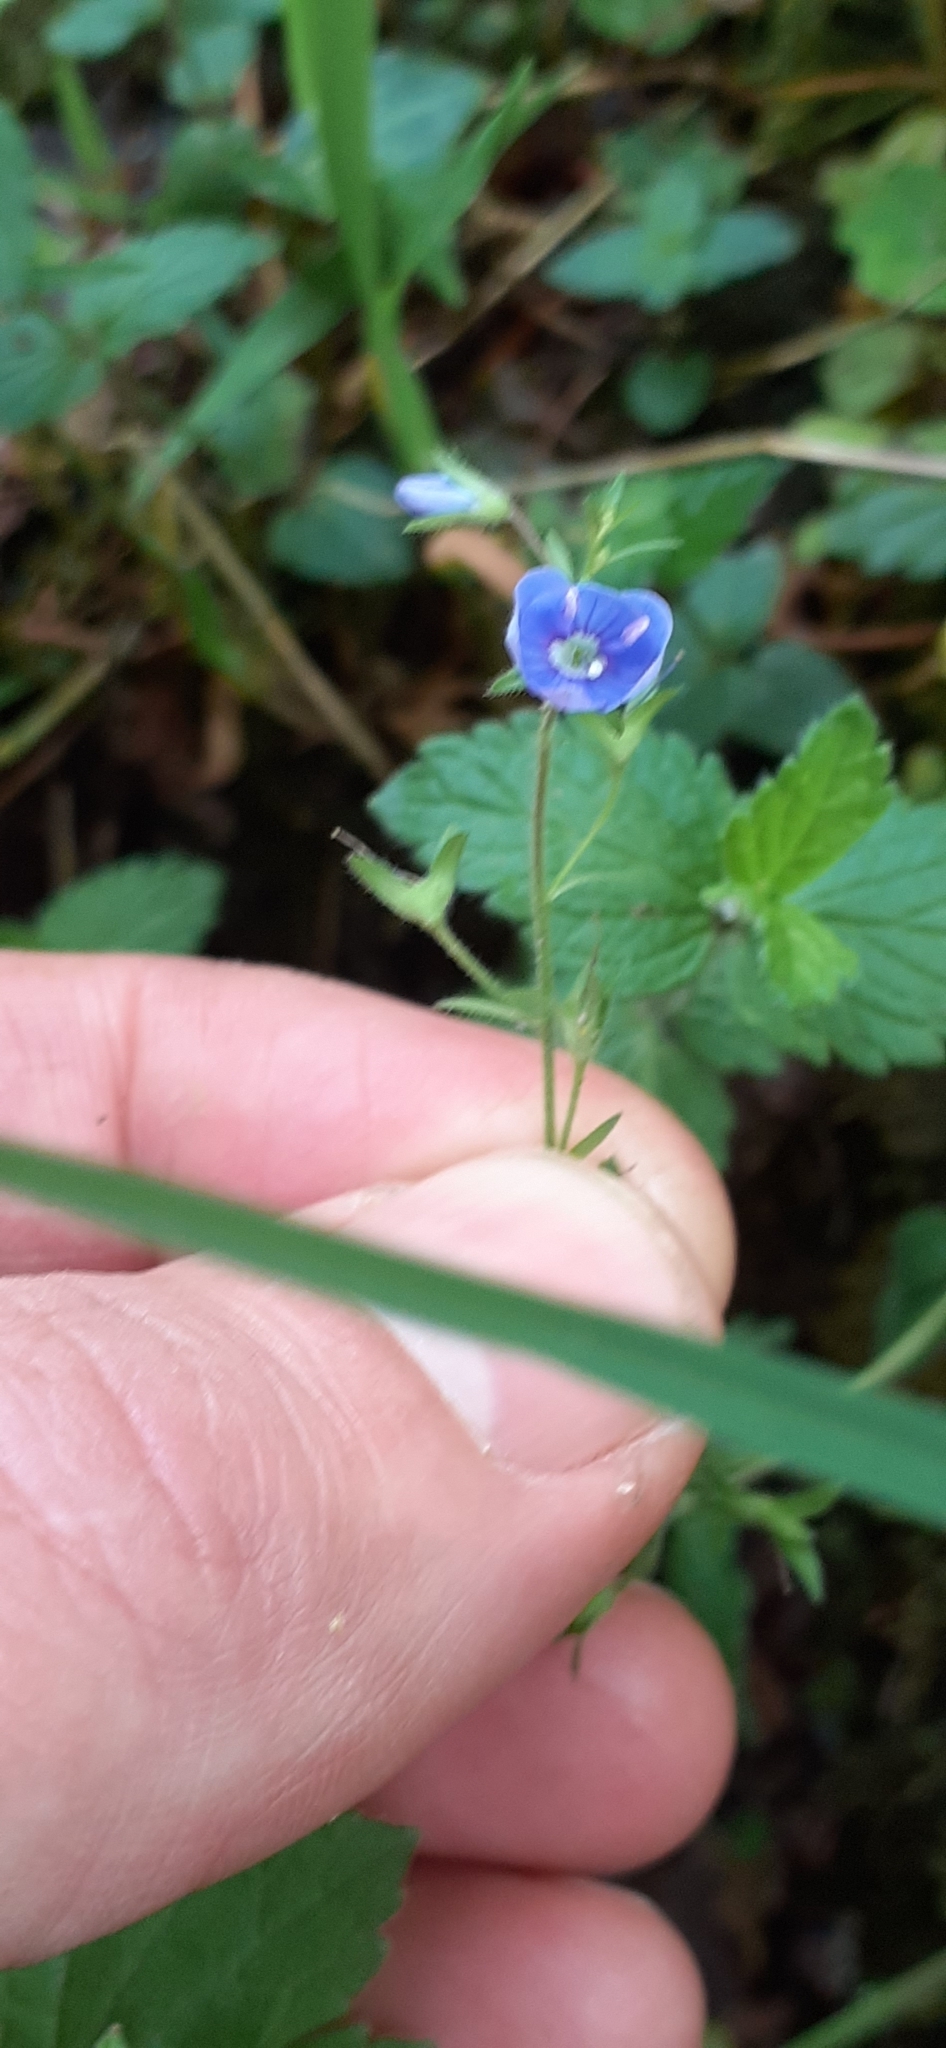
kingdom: Plantae
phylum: Tracheophyta
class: Magnoliopsida
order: Lamiales
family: Plantaginaceae
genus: Veronica
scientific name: Veronica chamaedrys
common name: Germander speedwell
